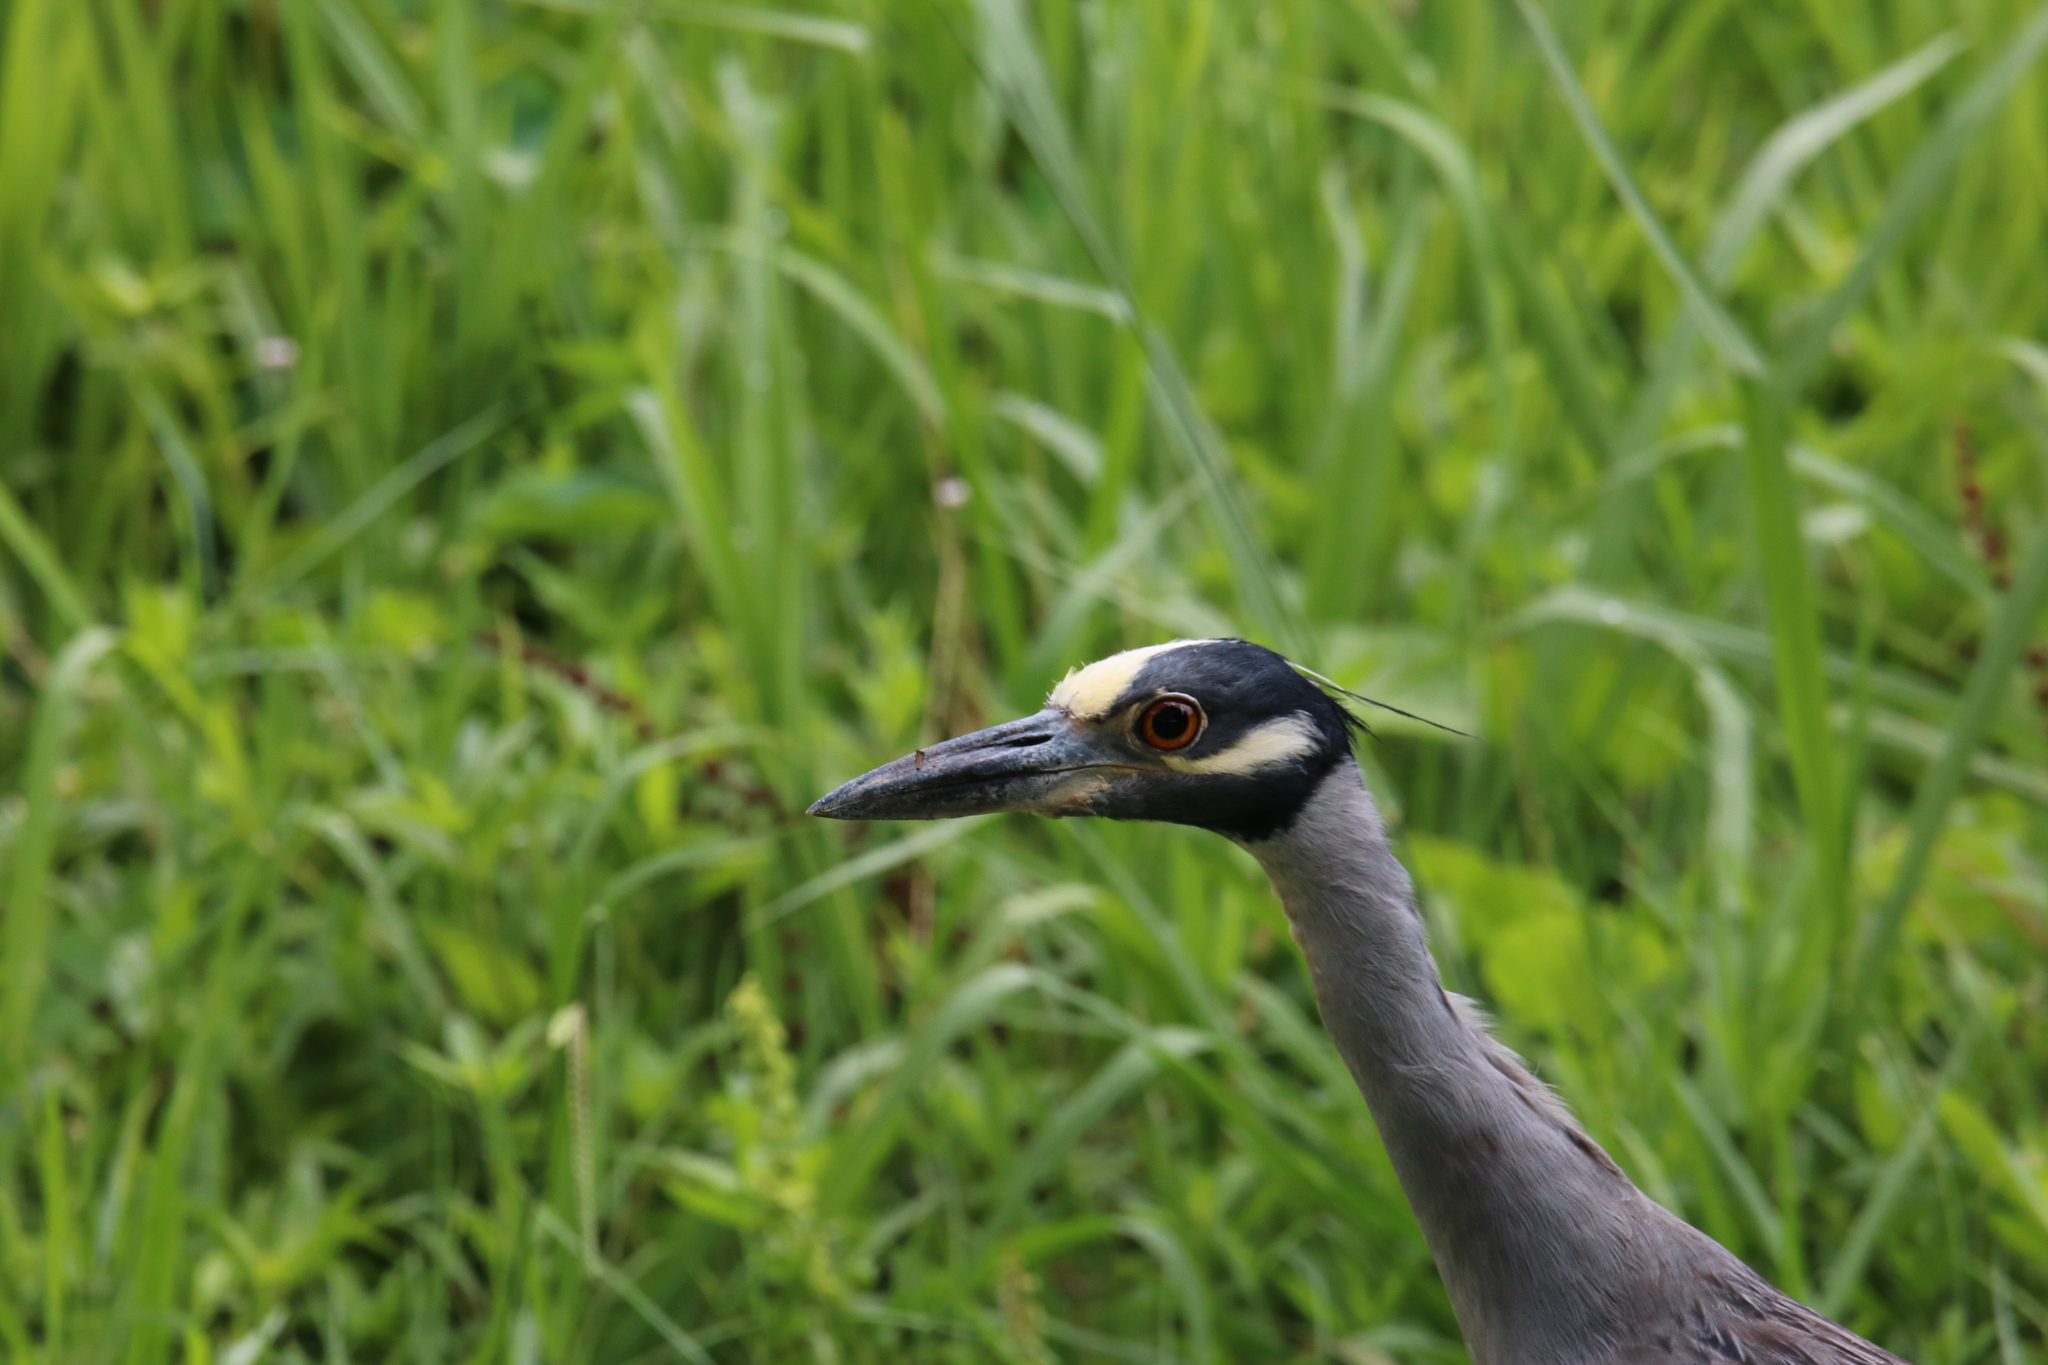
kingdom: Animalia
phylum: Chordata
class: Aves
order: Pelecaniformes
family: Ardeidae
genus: Nyctanassa
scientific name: Nyctanassa violacea
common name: Yellow-crowned night heron
